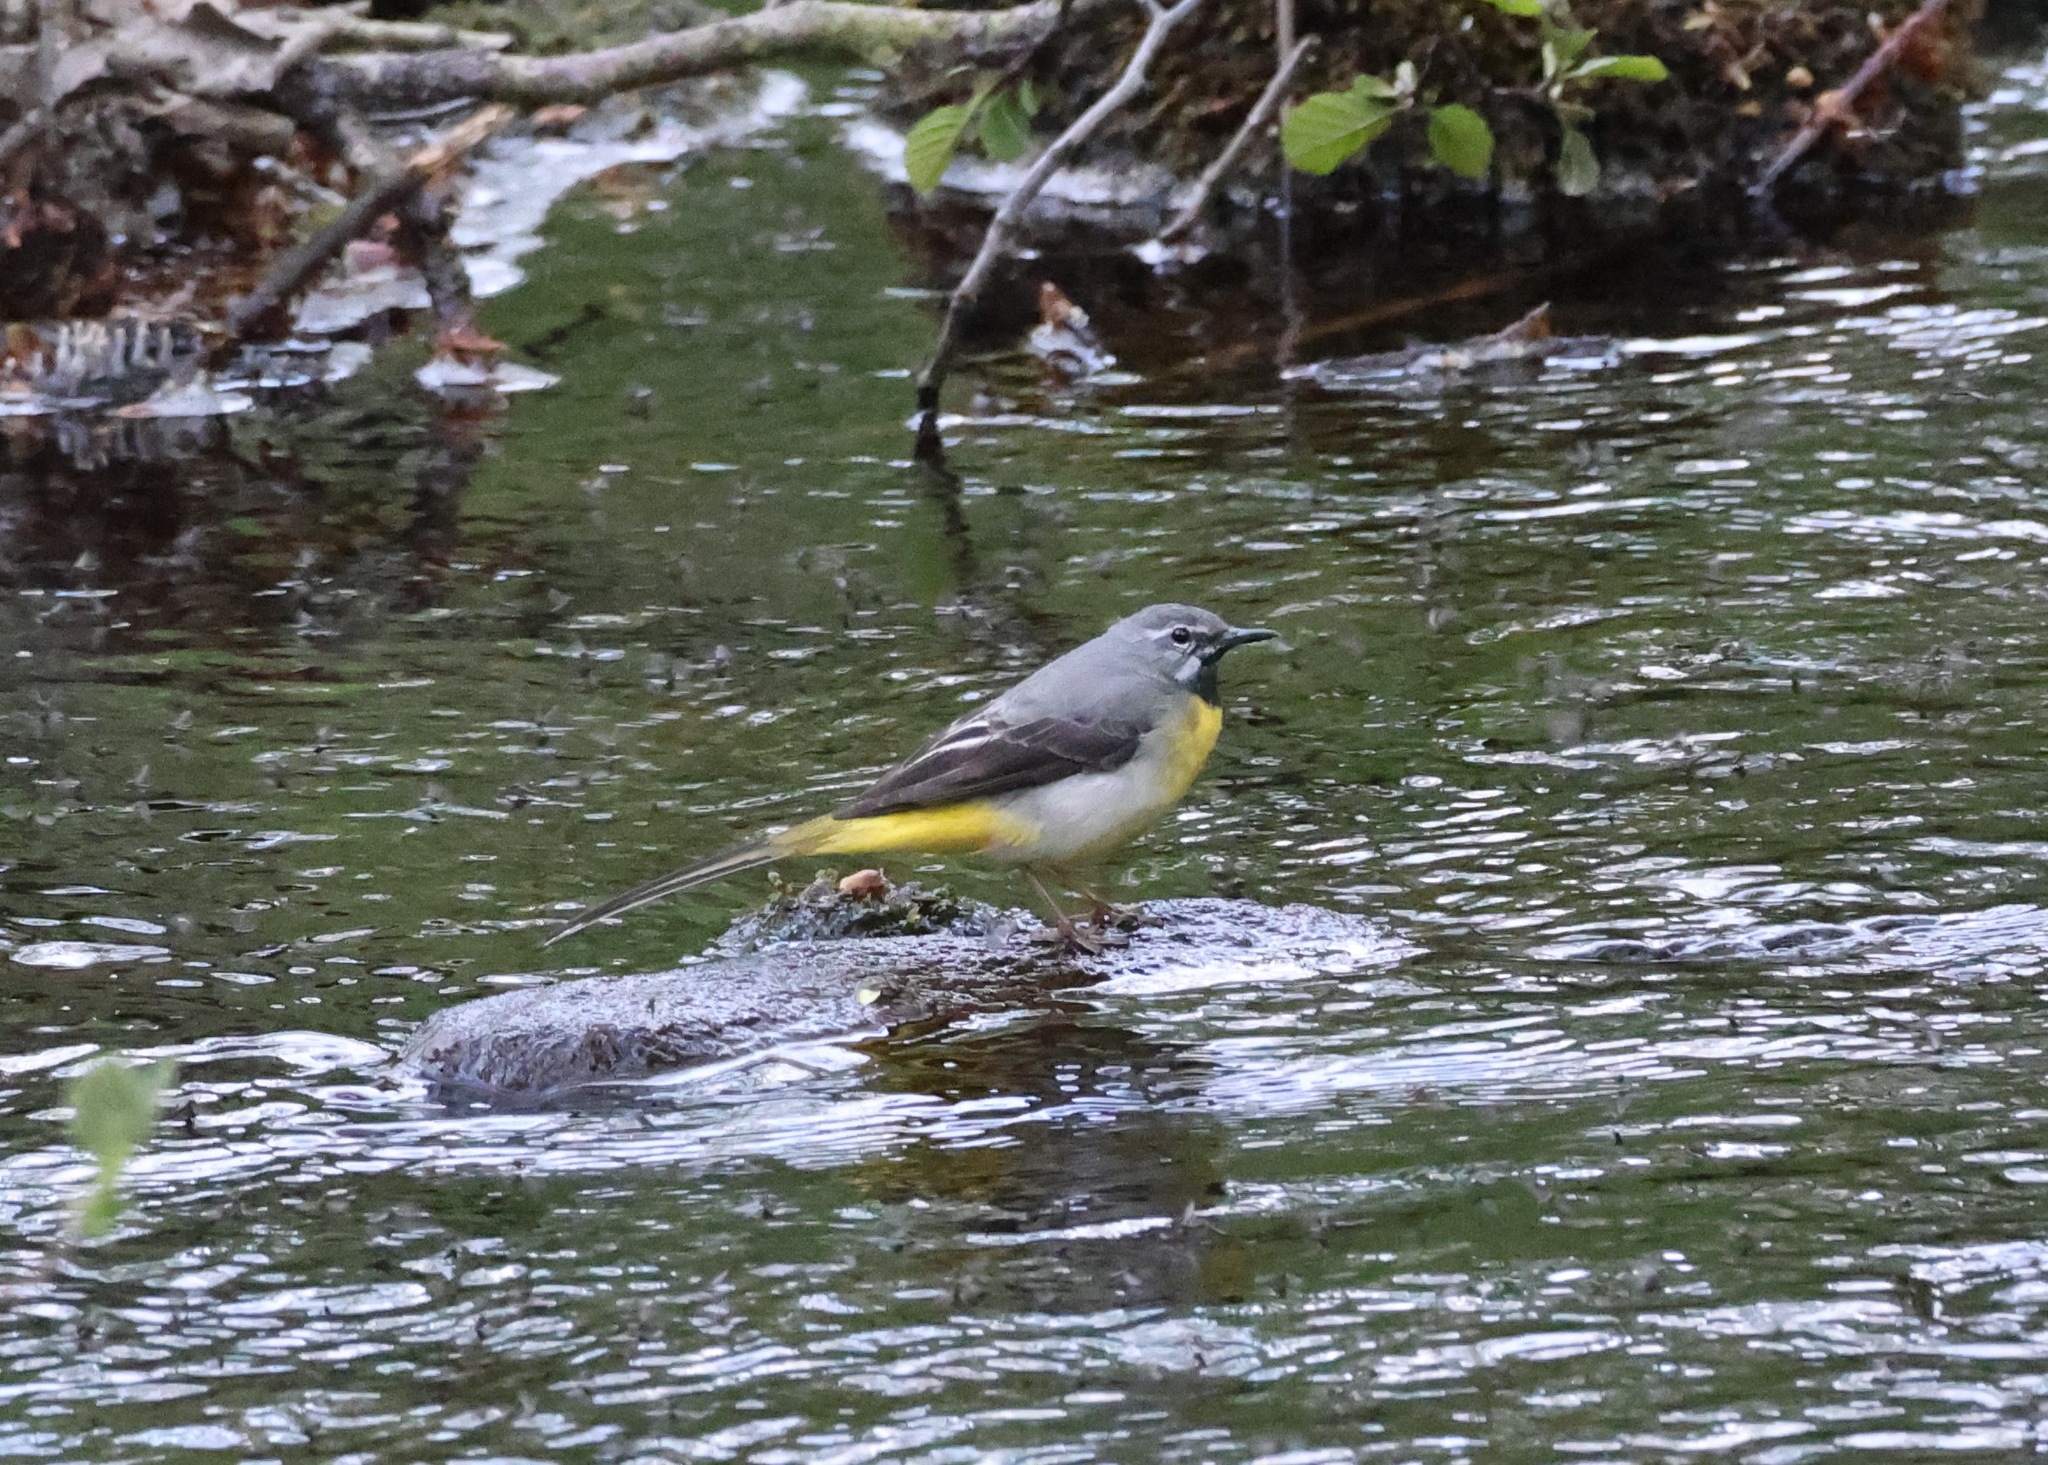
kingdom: Animalia
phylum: Chordata
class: Aves
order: Passeriformes
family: Motacillidae
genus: Motacilla
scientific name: Motacilla cinerea
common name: Grey wagtail
